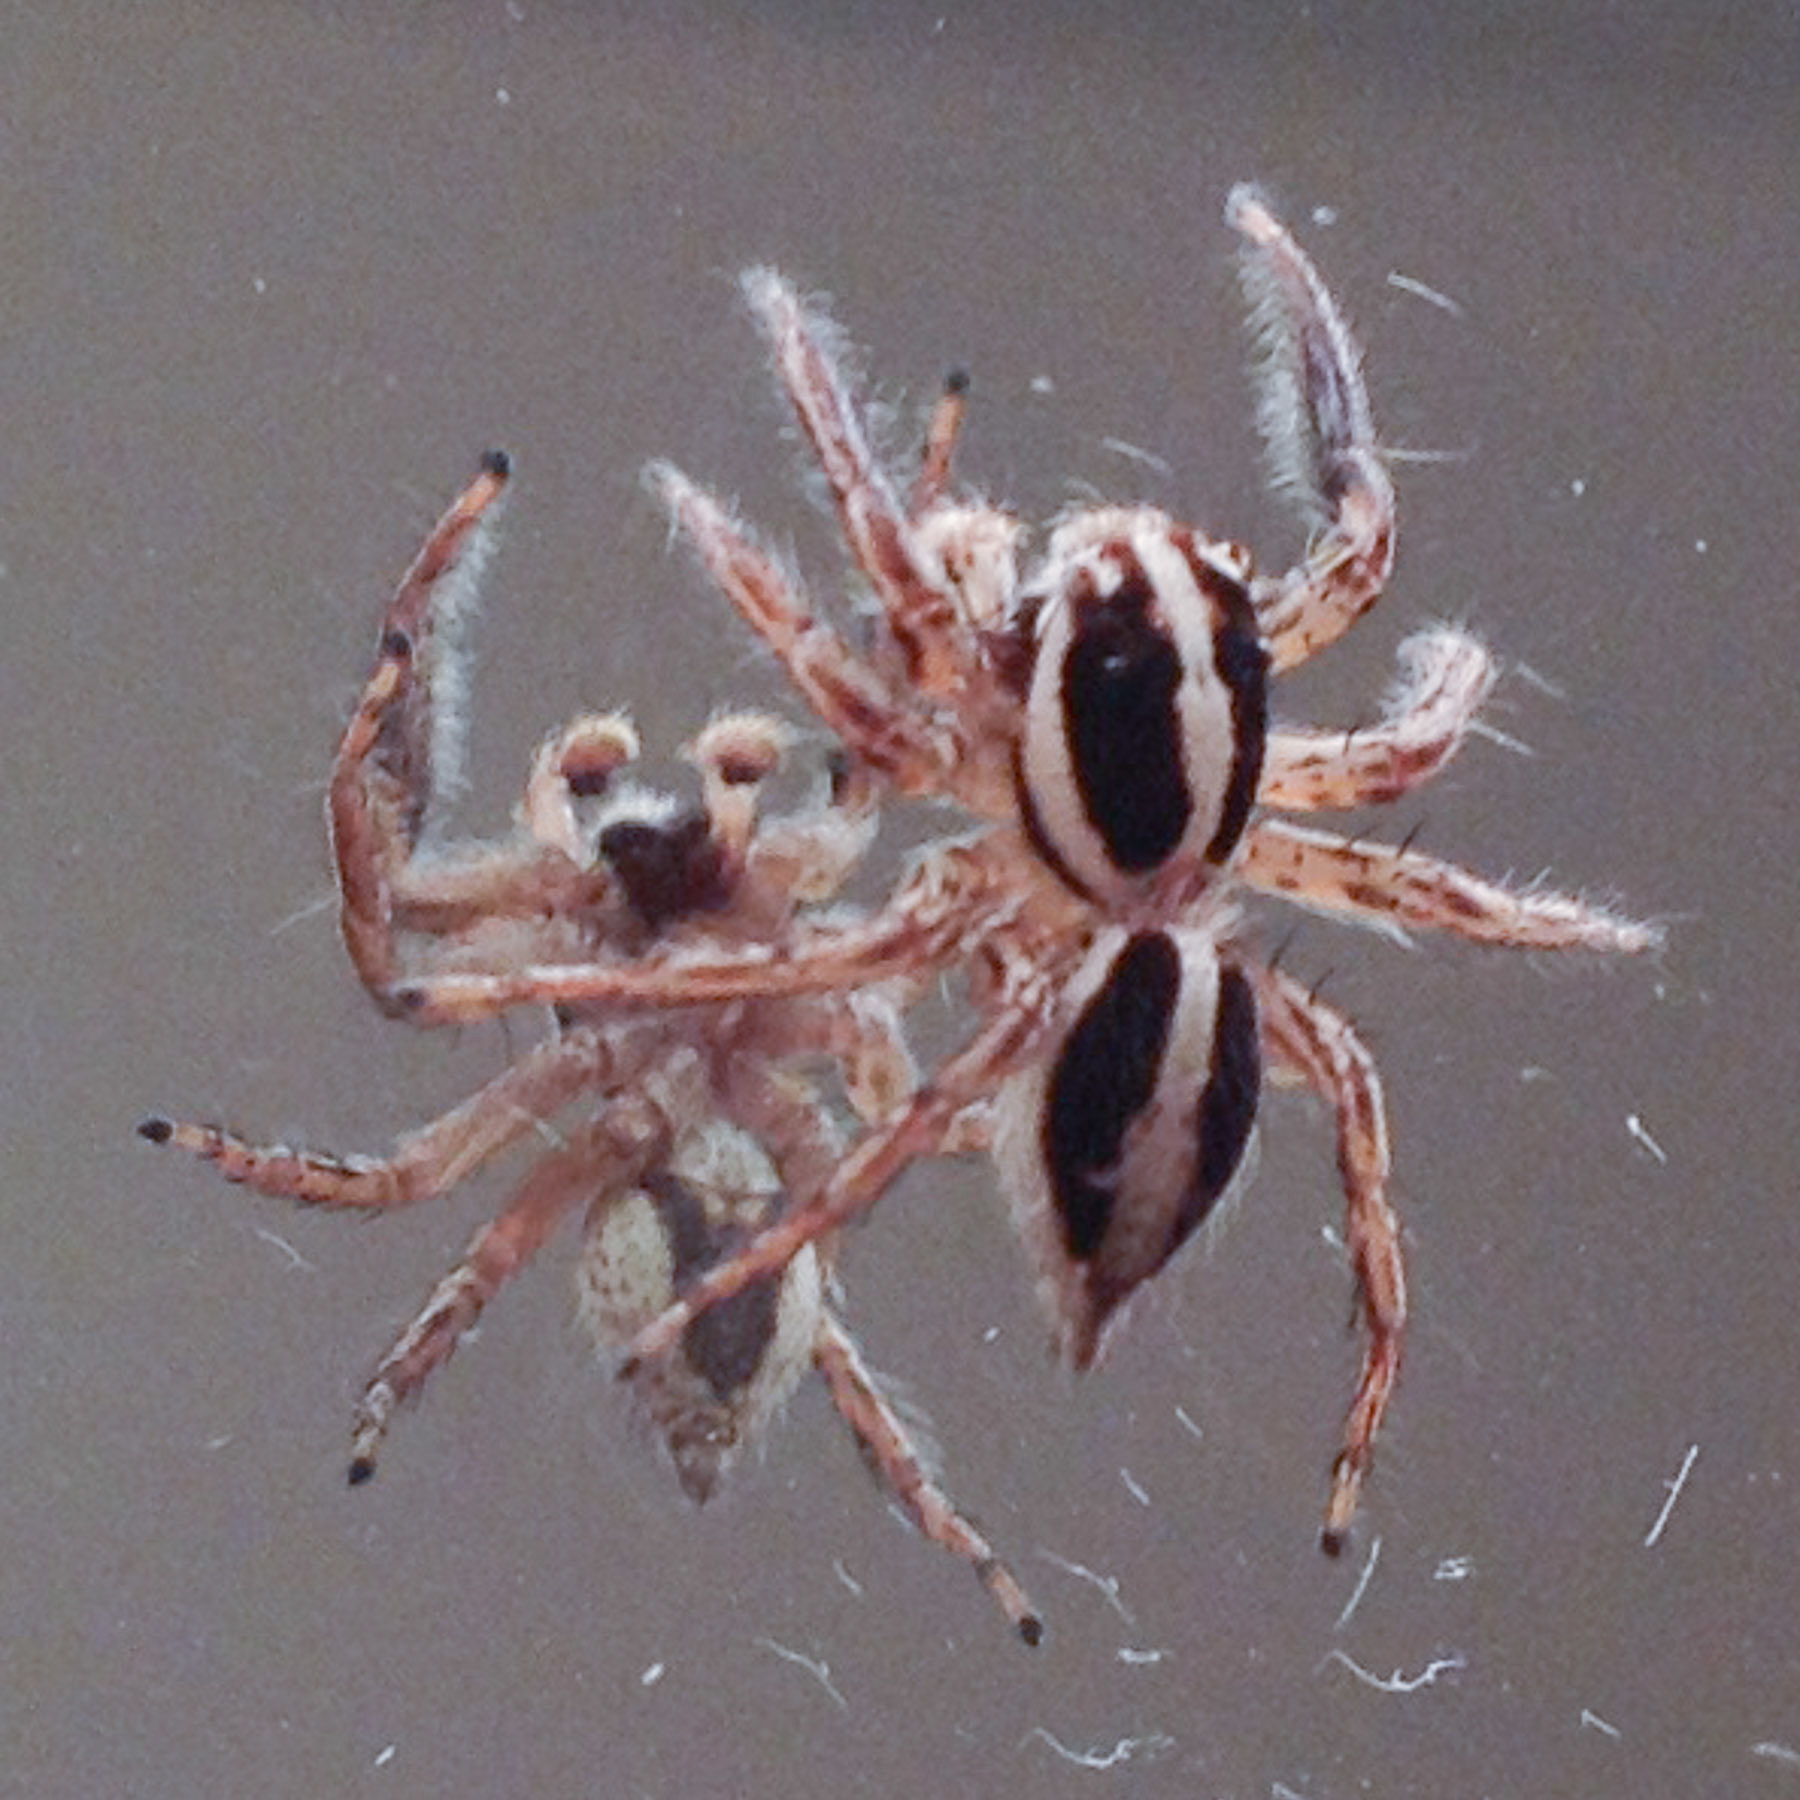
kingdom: Animalia
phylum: Arthropoda
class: Arachnida
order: Araneae
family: Salticidae
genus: Plexippus
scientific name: Plexippus paykulli
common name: Pantropical jumper
